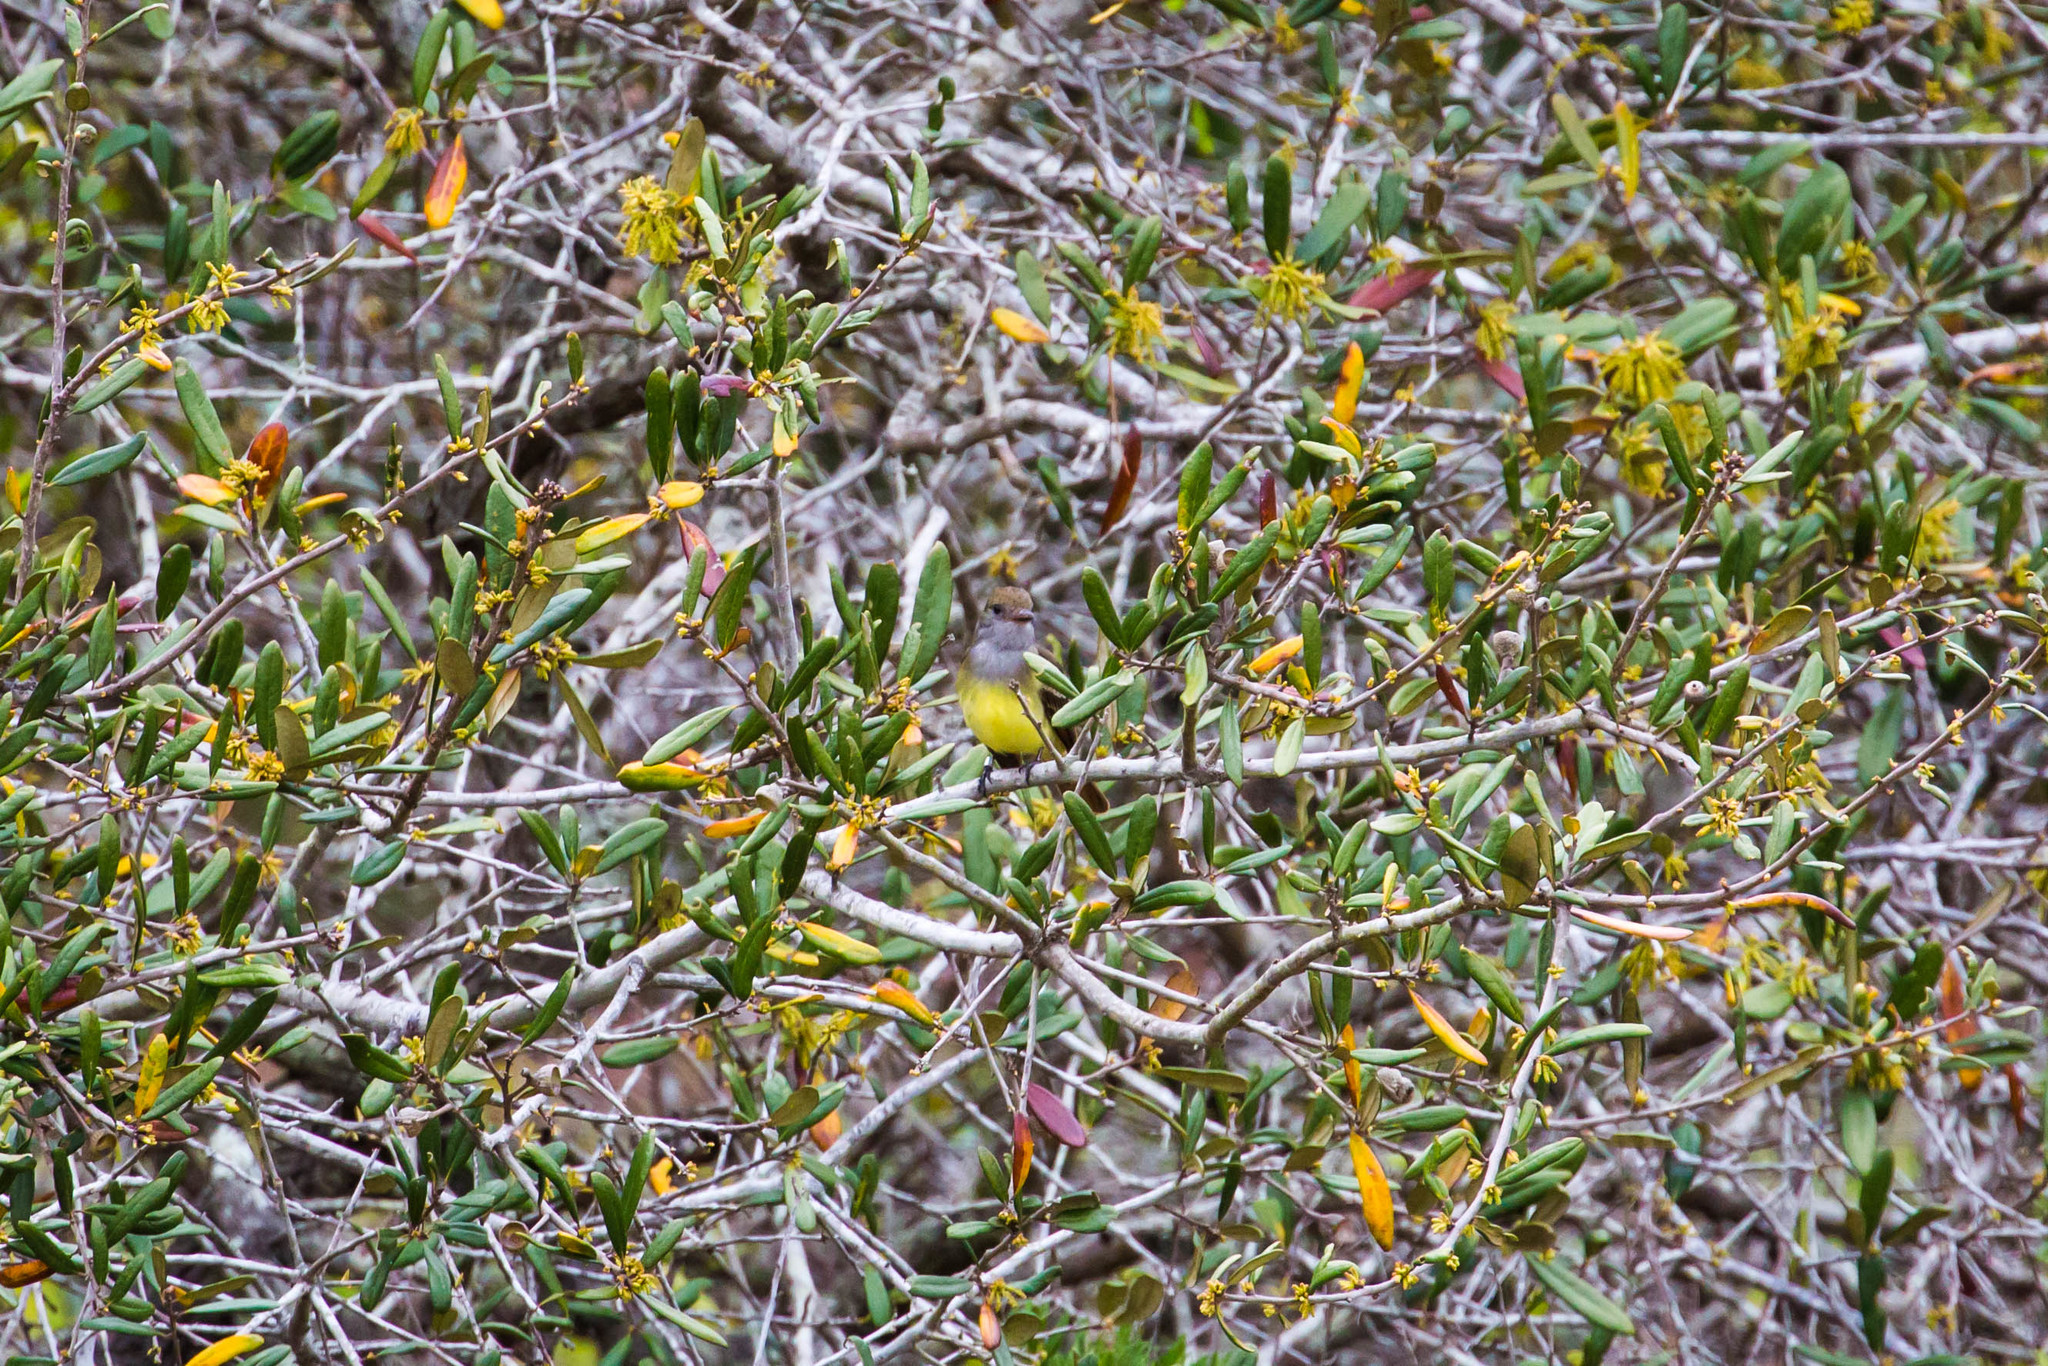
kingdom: Animalia
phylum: Chordata
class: Aves
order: Passeriformes
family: Tyrannidae
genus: Myiarchus
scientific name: Myiarchus crinitus
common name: Great crested flycatcher
